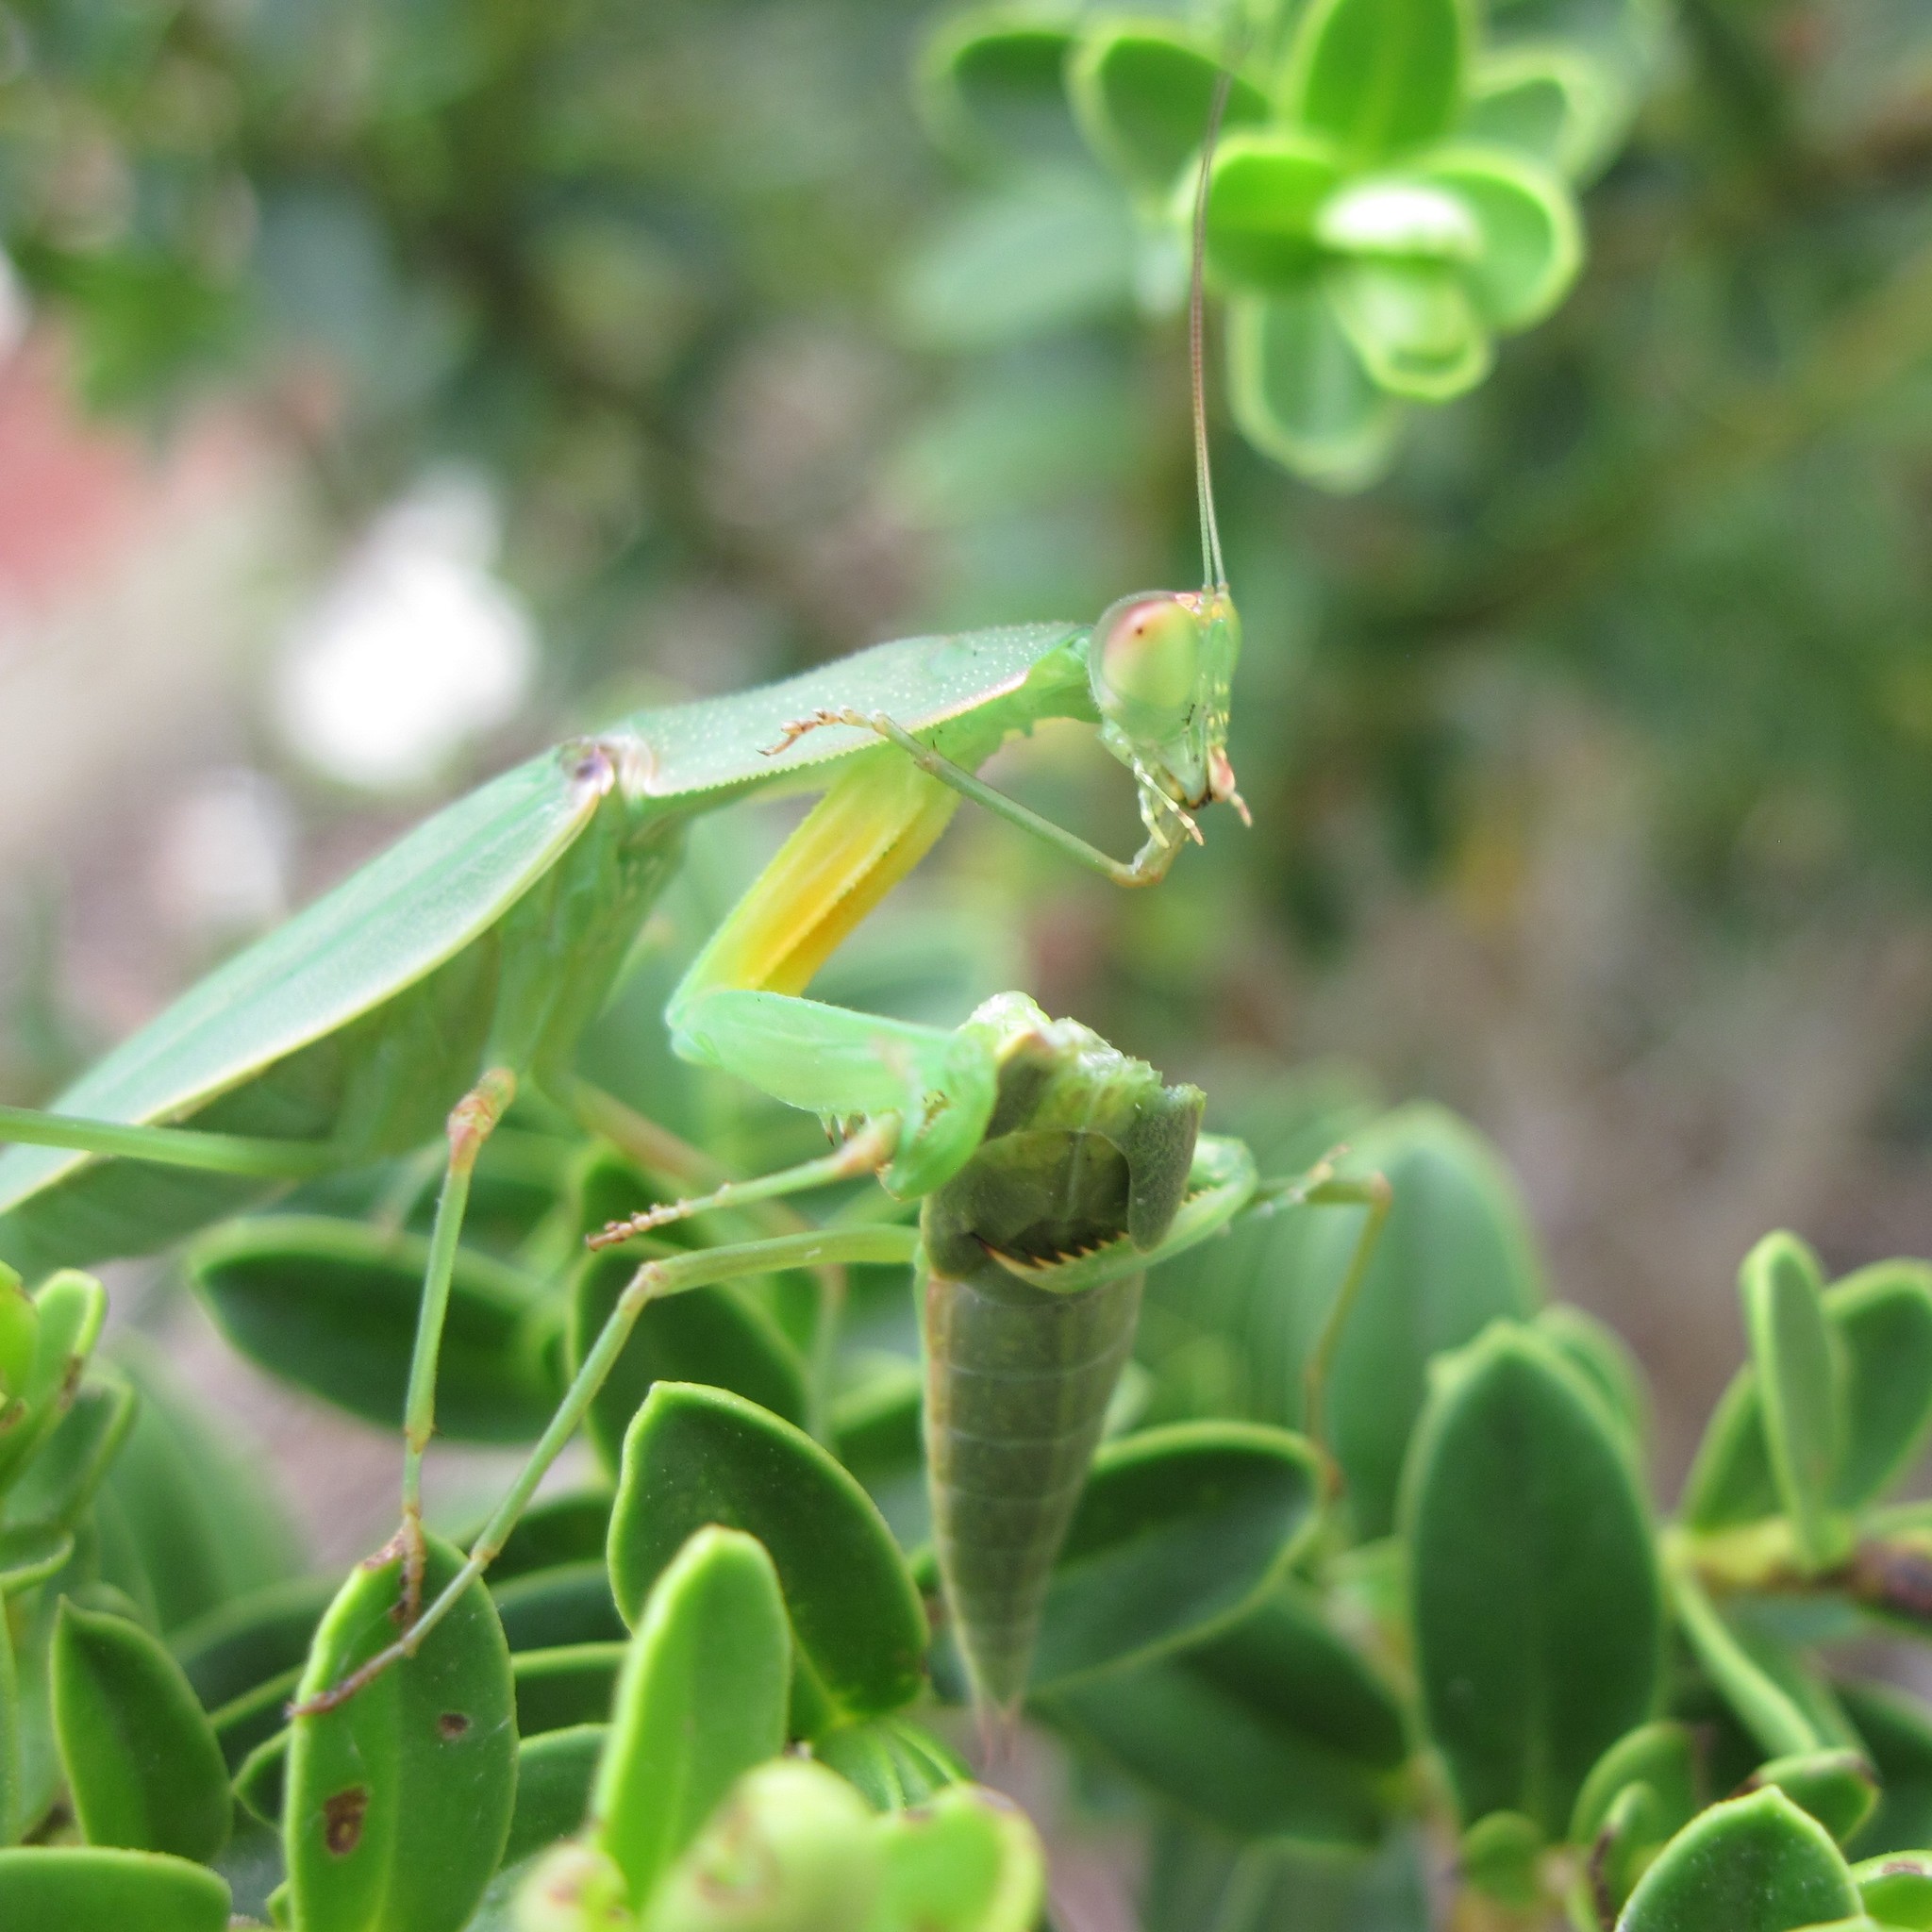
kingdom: Animalia
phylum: Arthropoda
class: Insecta
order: Mantodea
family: Mantidae
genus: Orthodera
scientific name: Orthodera novaezealandiae
